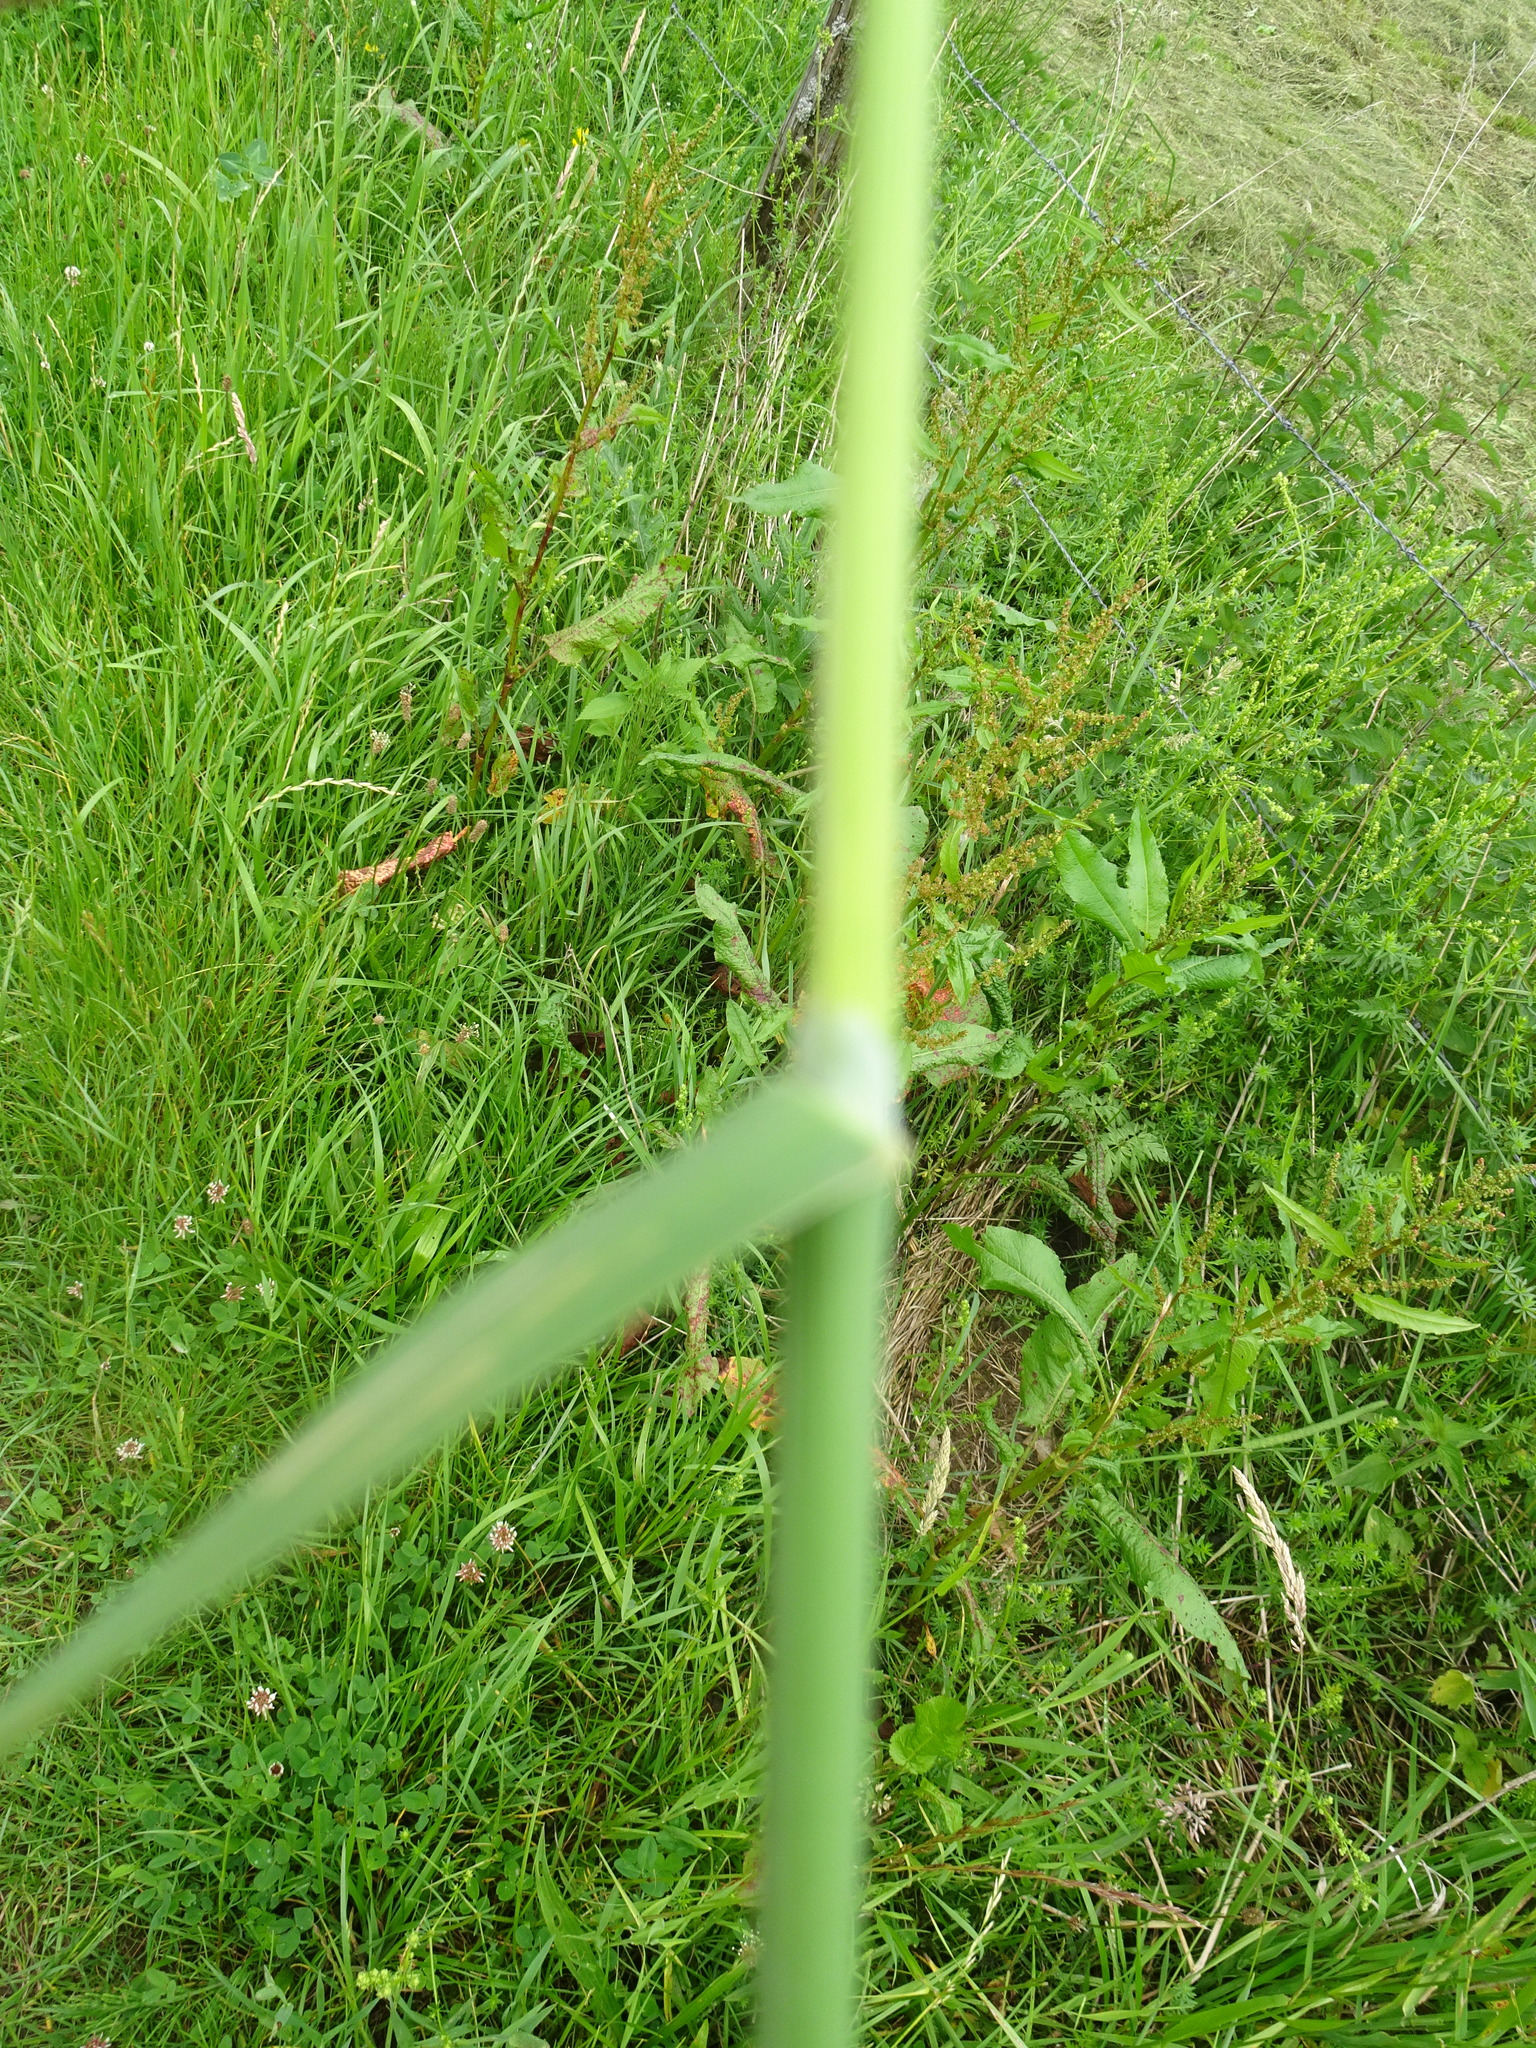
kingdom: Plantae
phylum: Tracheophyta
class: Liliopsida
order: Poales
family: Poaceae
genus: Phleum
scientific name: Phleum pratense
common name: Timothy grass
